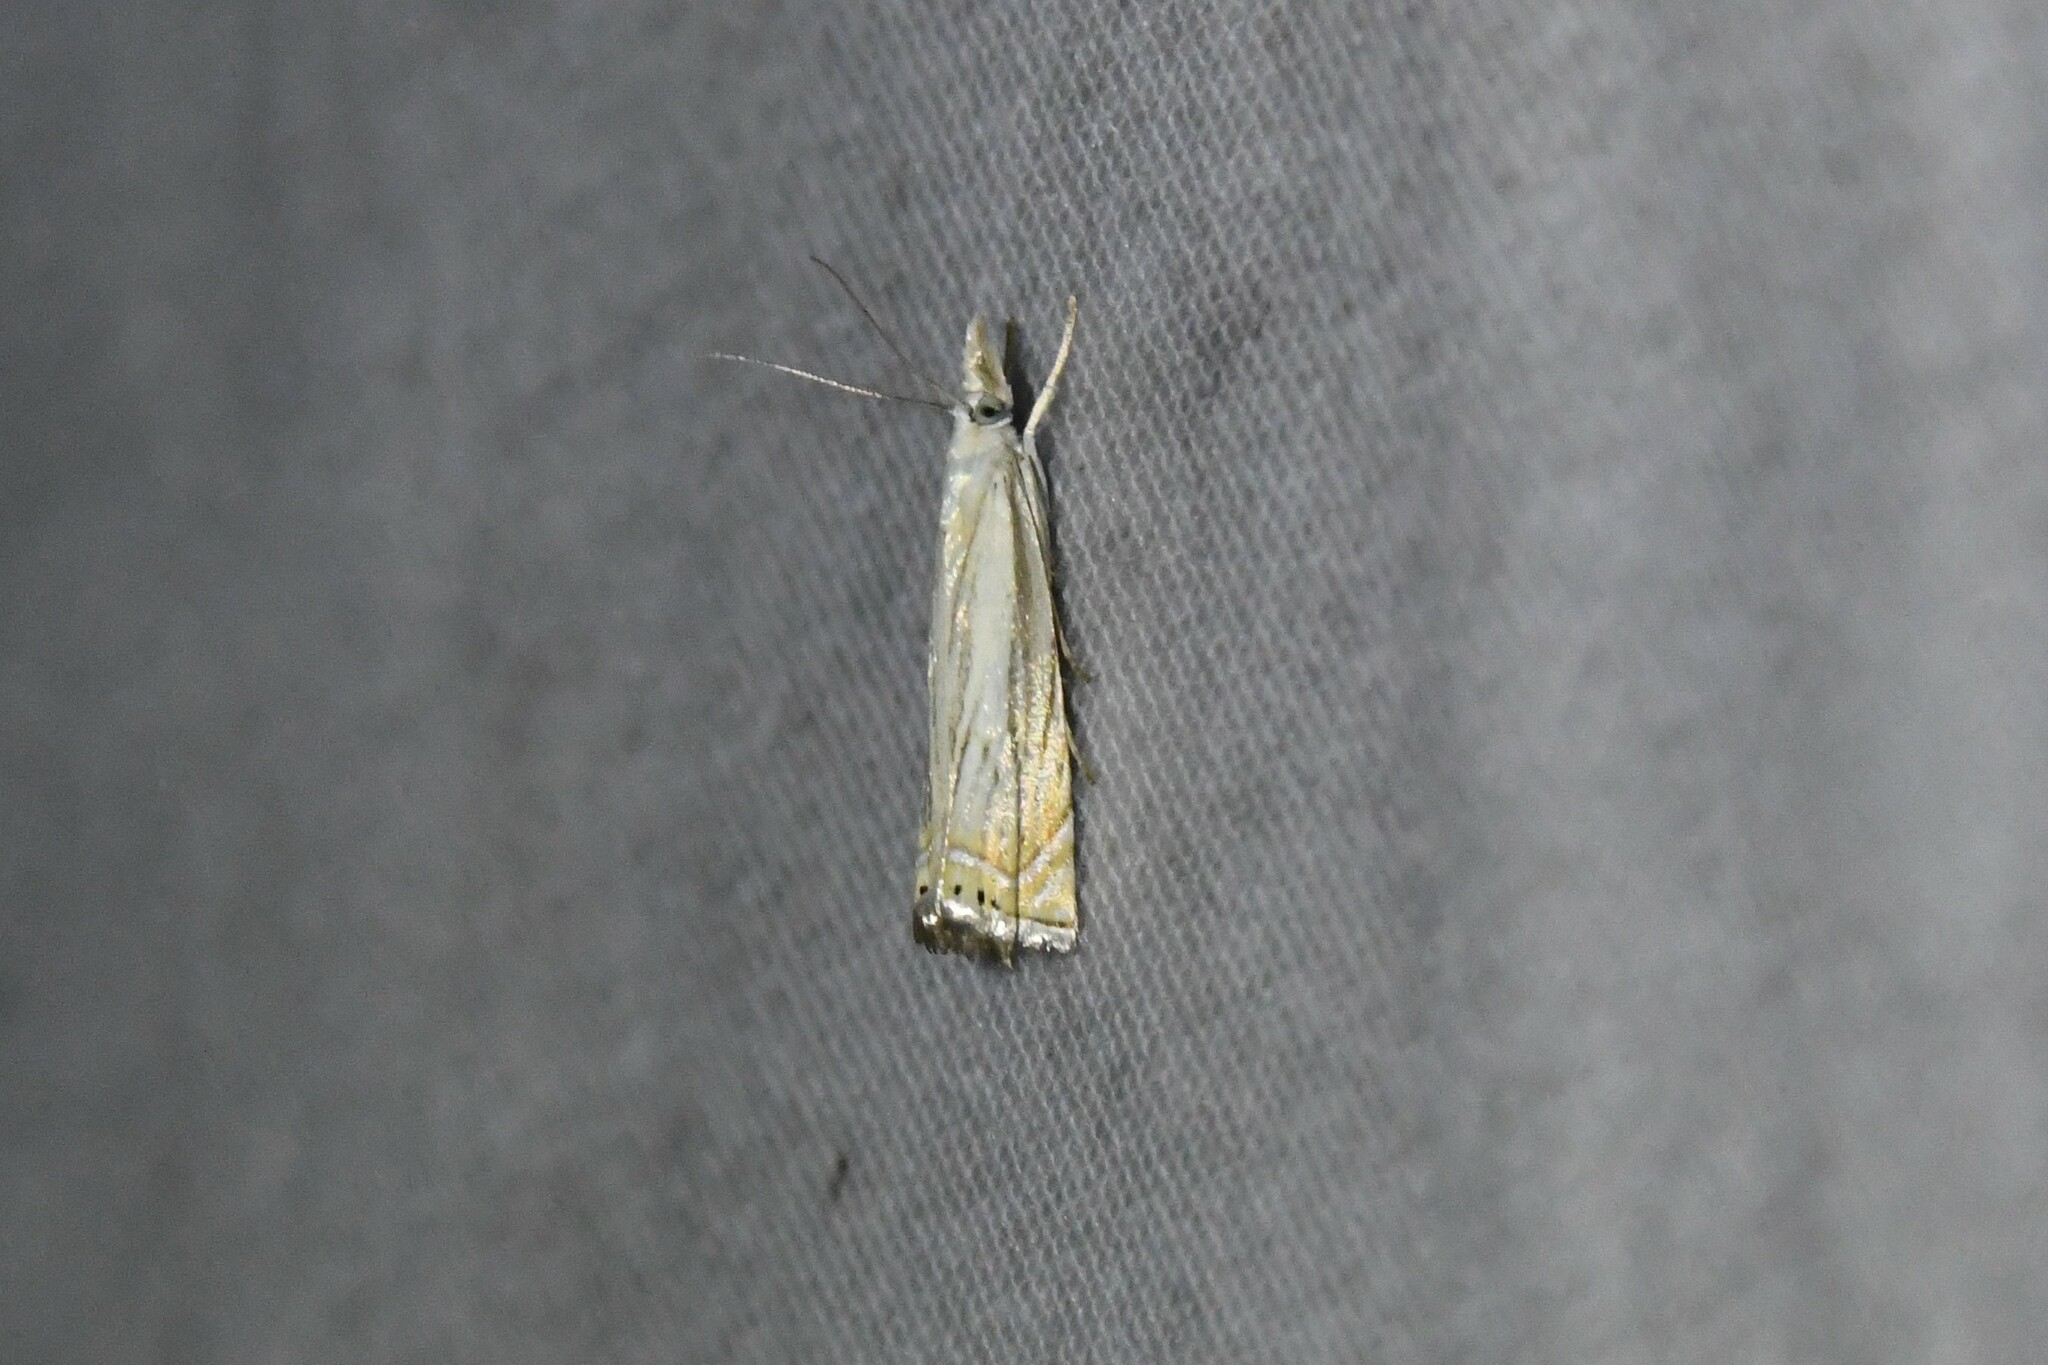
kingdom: Animalia
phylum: Arthropoda
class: Insecta
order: Lepidoptera
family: Crambidae
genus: Chrysoteuchia
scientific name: Chrysoteuchia topiarius
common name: Topiary grass-veneer
